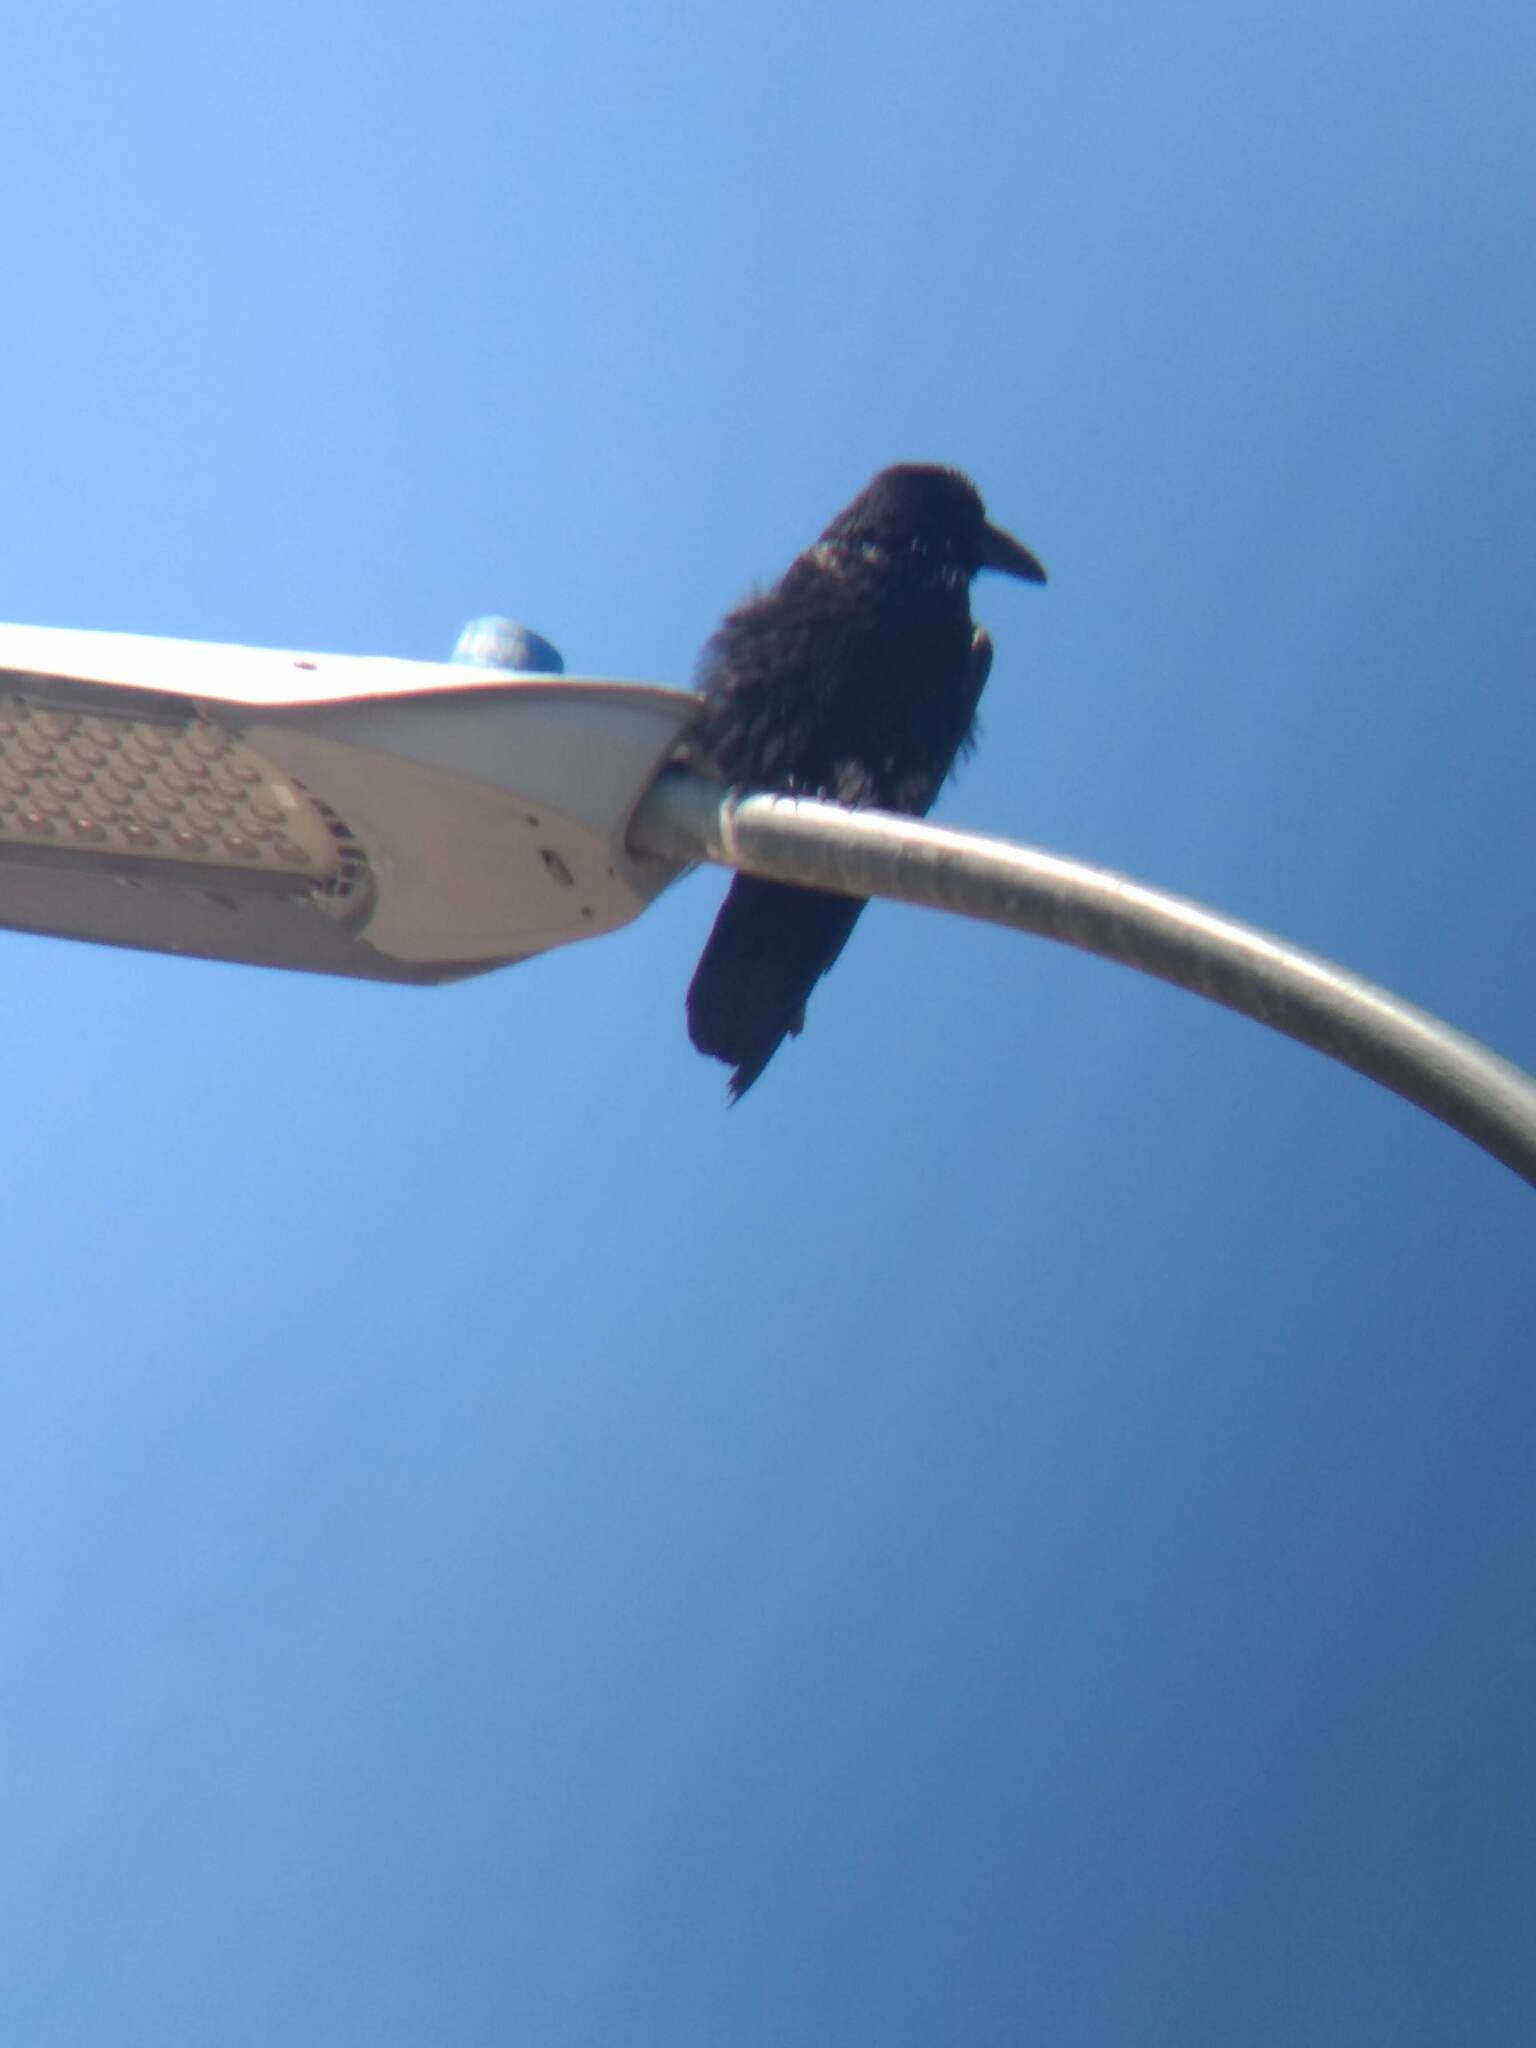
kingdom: Animalia
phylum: Chordata
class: Aves
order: Passeriformes
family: Corvidae
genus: Corvus
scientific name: Corvus corax
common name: Common raven
